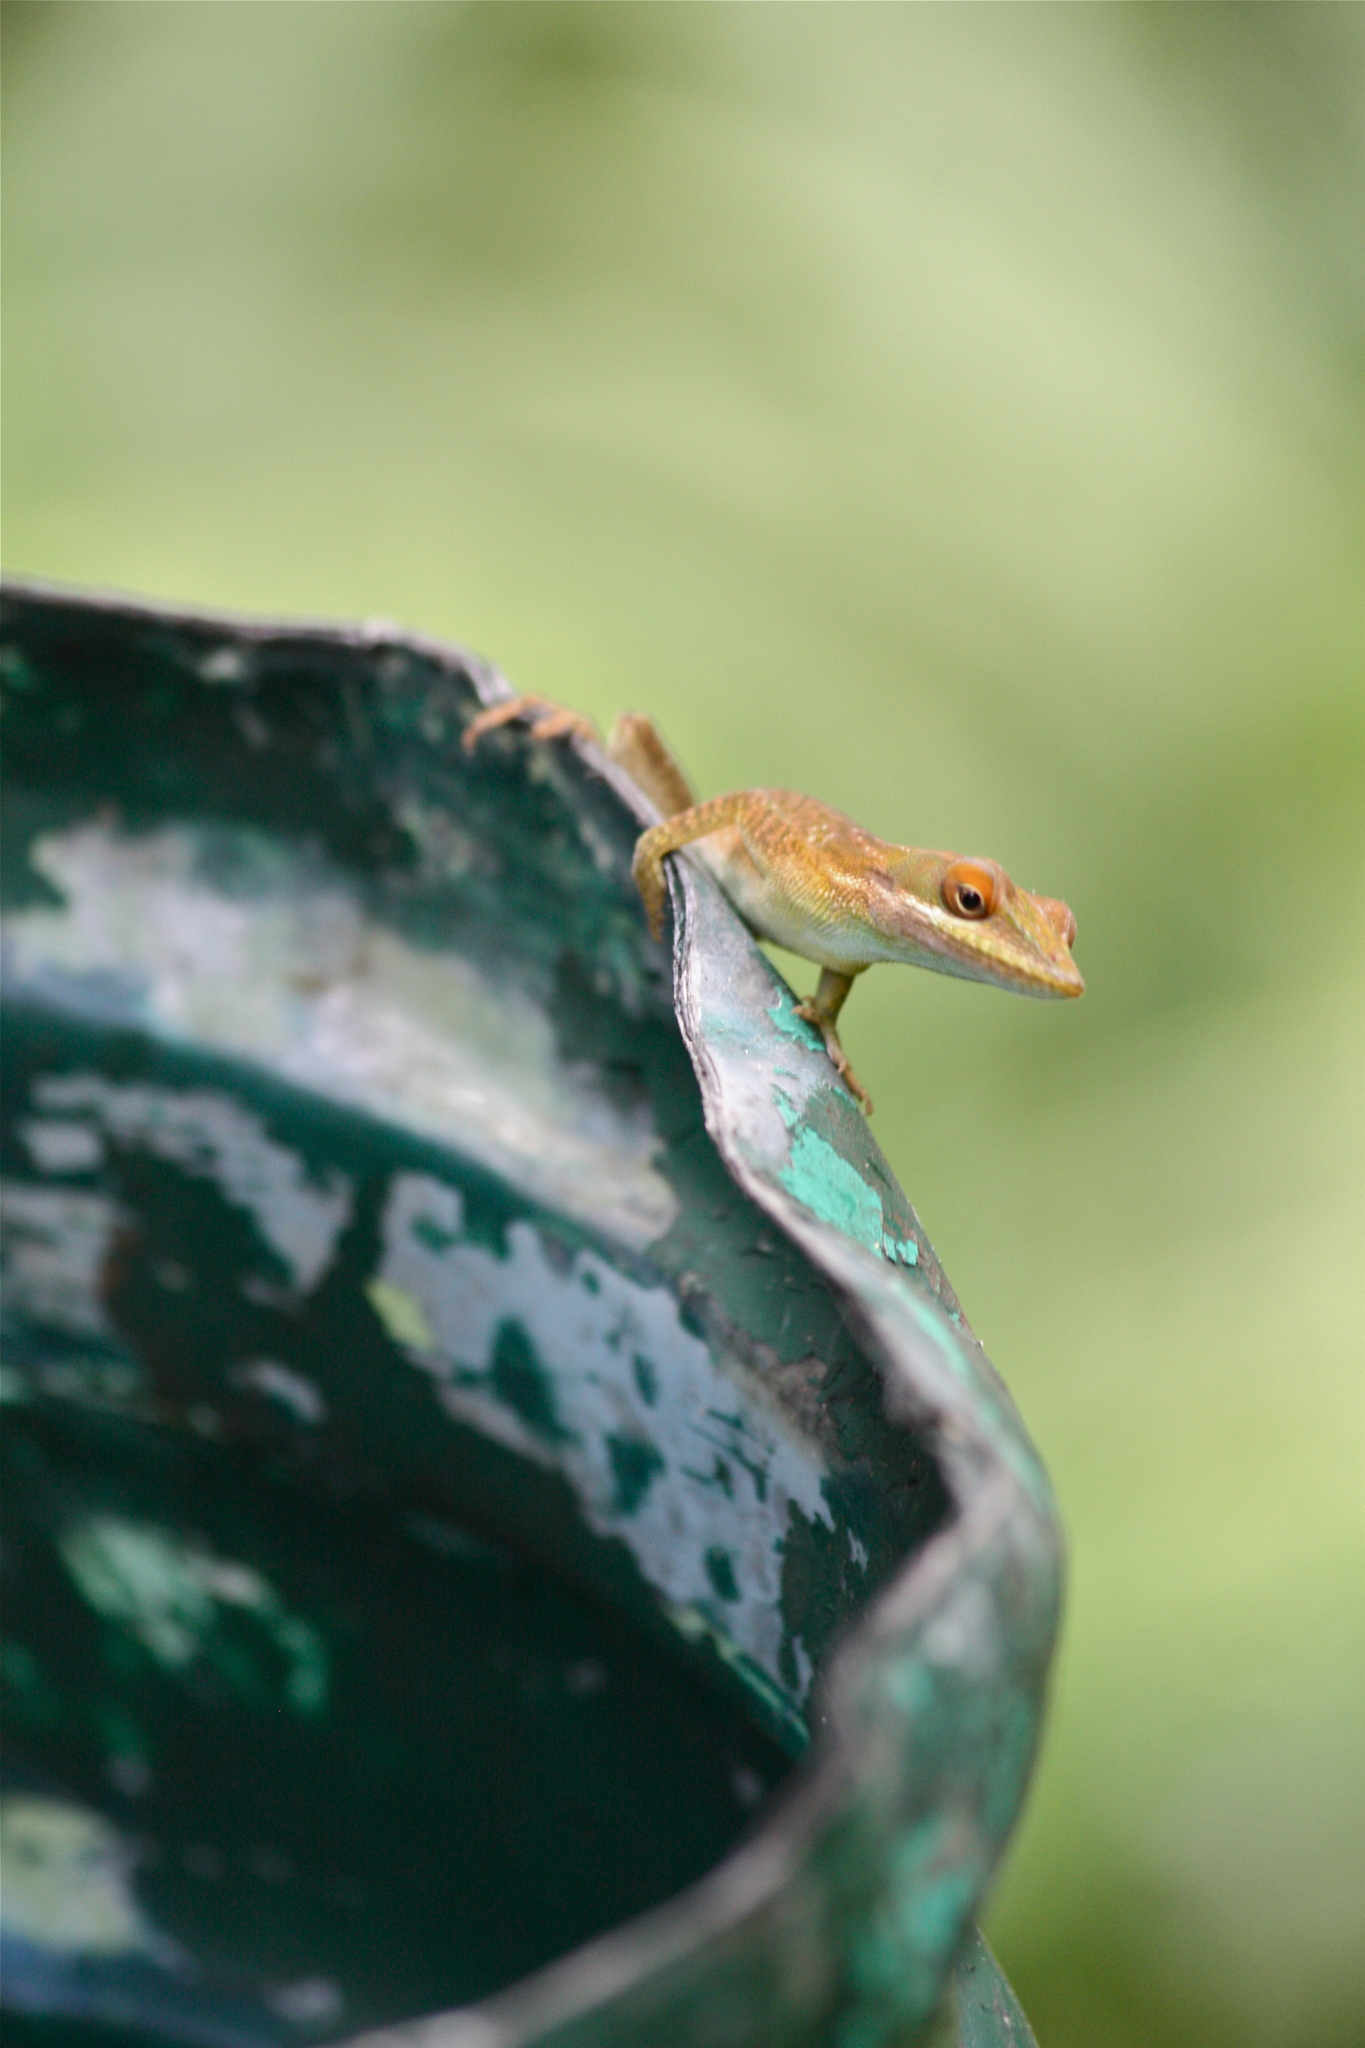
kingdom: Animalia
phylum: Chordata
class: Squamata
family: Dactyloidae
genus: Anolis
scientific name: Anolis allisoni
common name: Allison's anole
